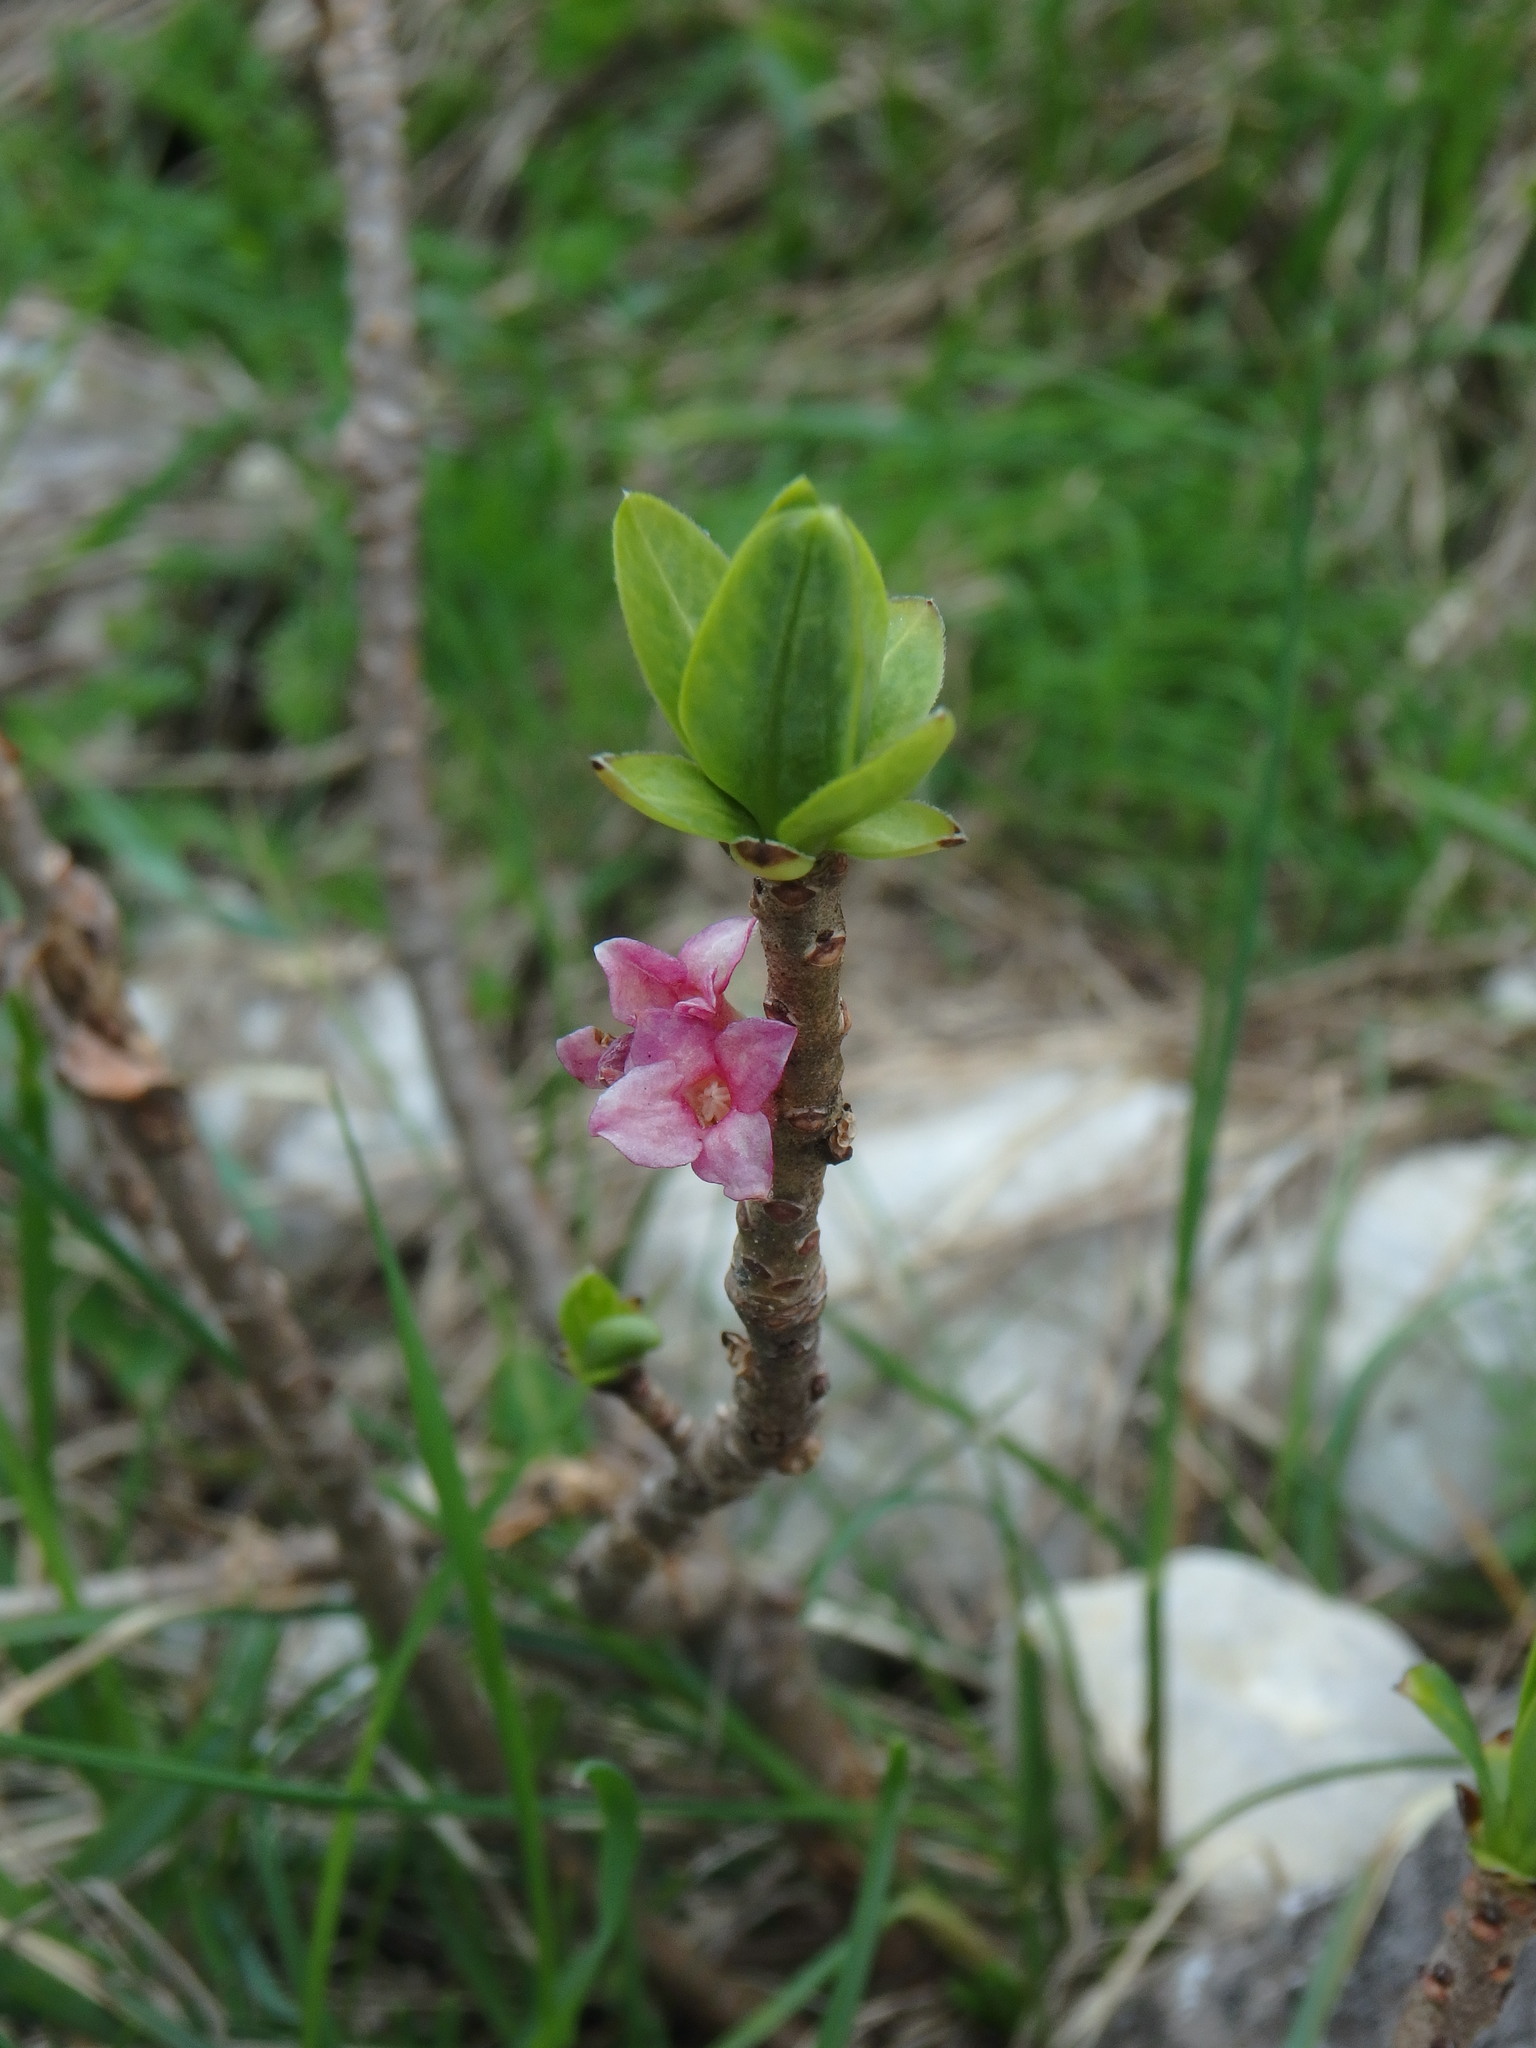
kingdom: Plantae
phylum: Tracheophyta
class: Magnoliopsida
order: Malvales
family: Thymelaeaceae
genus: Daphne
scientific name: Daphne mezereum
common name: Mezereon
